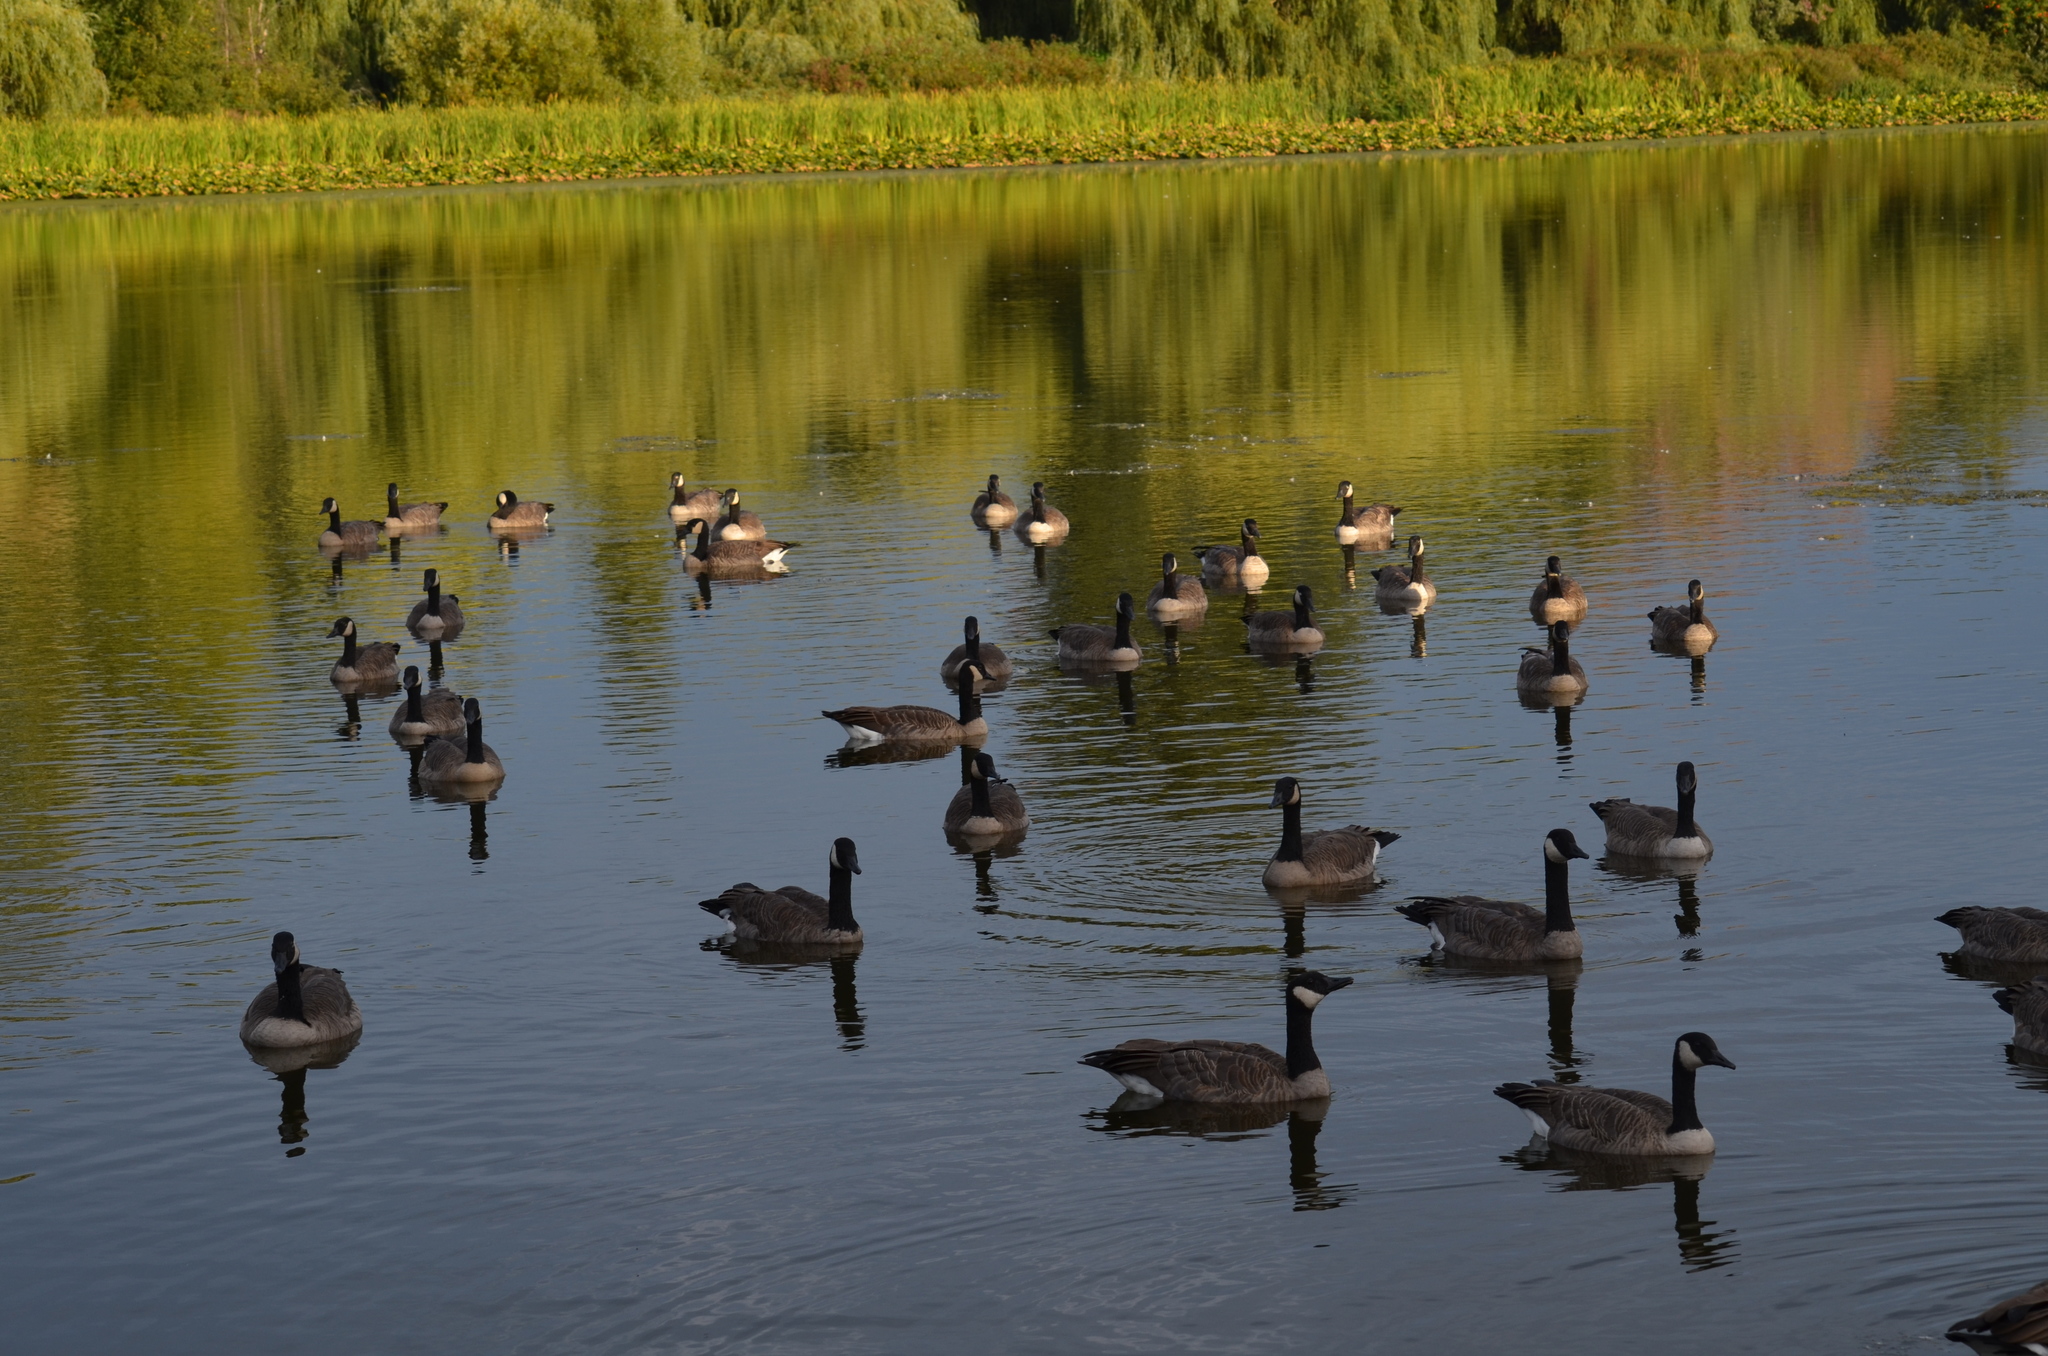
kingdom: Animalia
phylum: Chordata
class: Aves
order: Anseriformes
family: Anatidae
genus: Branta
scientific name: Branta canadensis
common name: Canada goose
